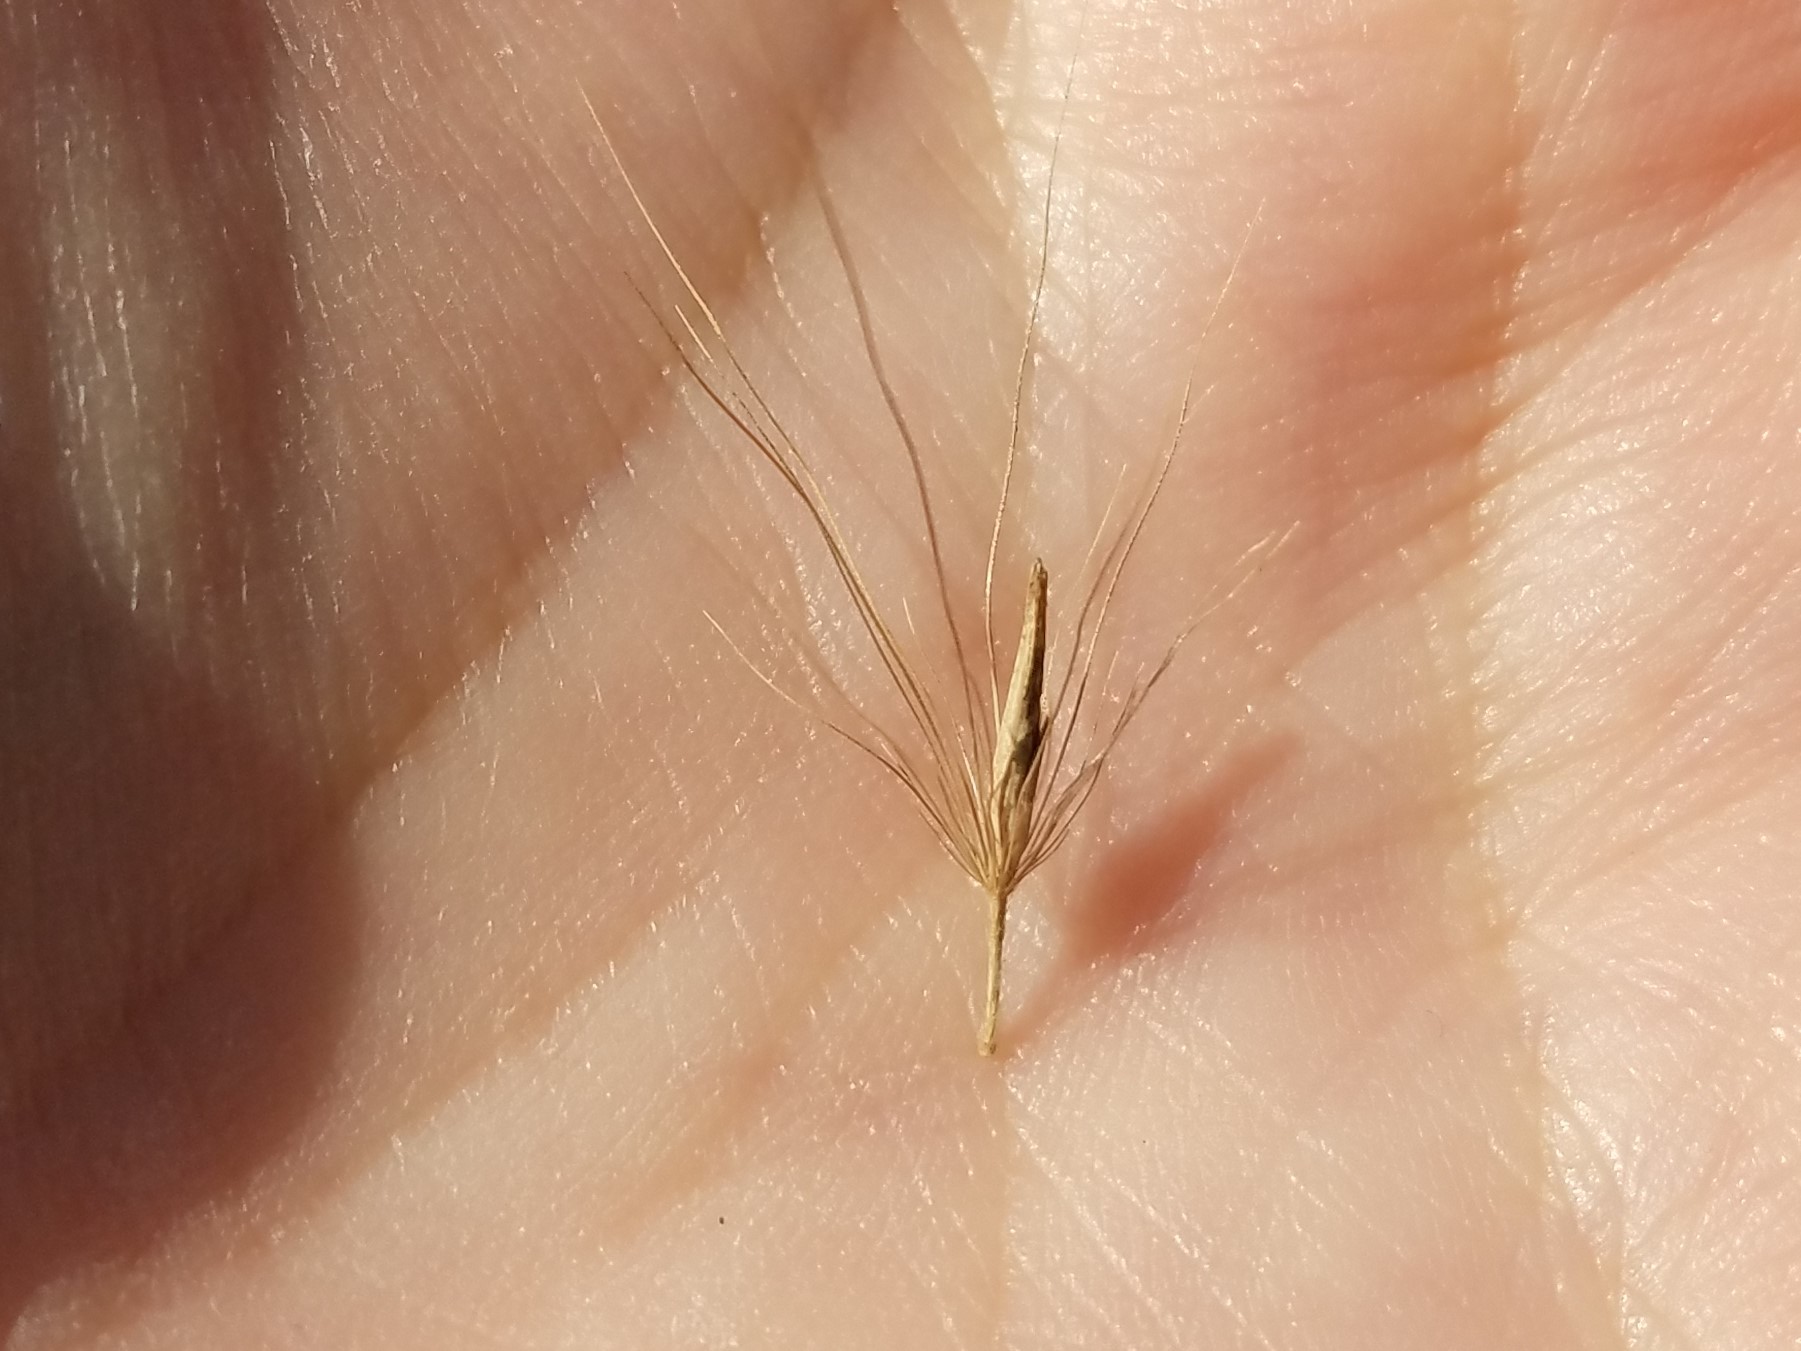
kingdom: Plantae
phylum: Tracheophyta
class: Liliopsida
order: Poales
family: Poaceae
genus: Cenchrus
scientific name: Cenchrus alopecuroides
